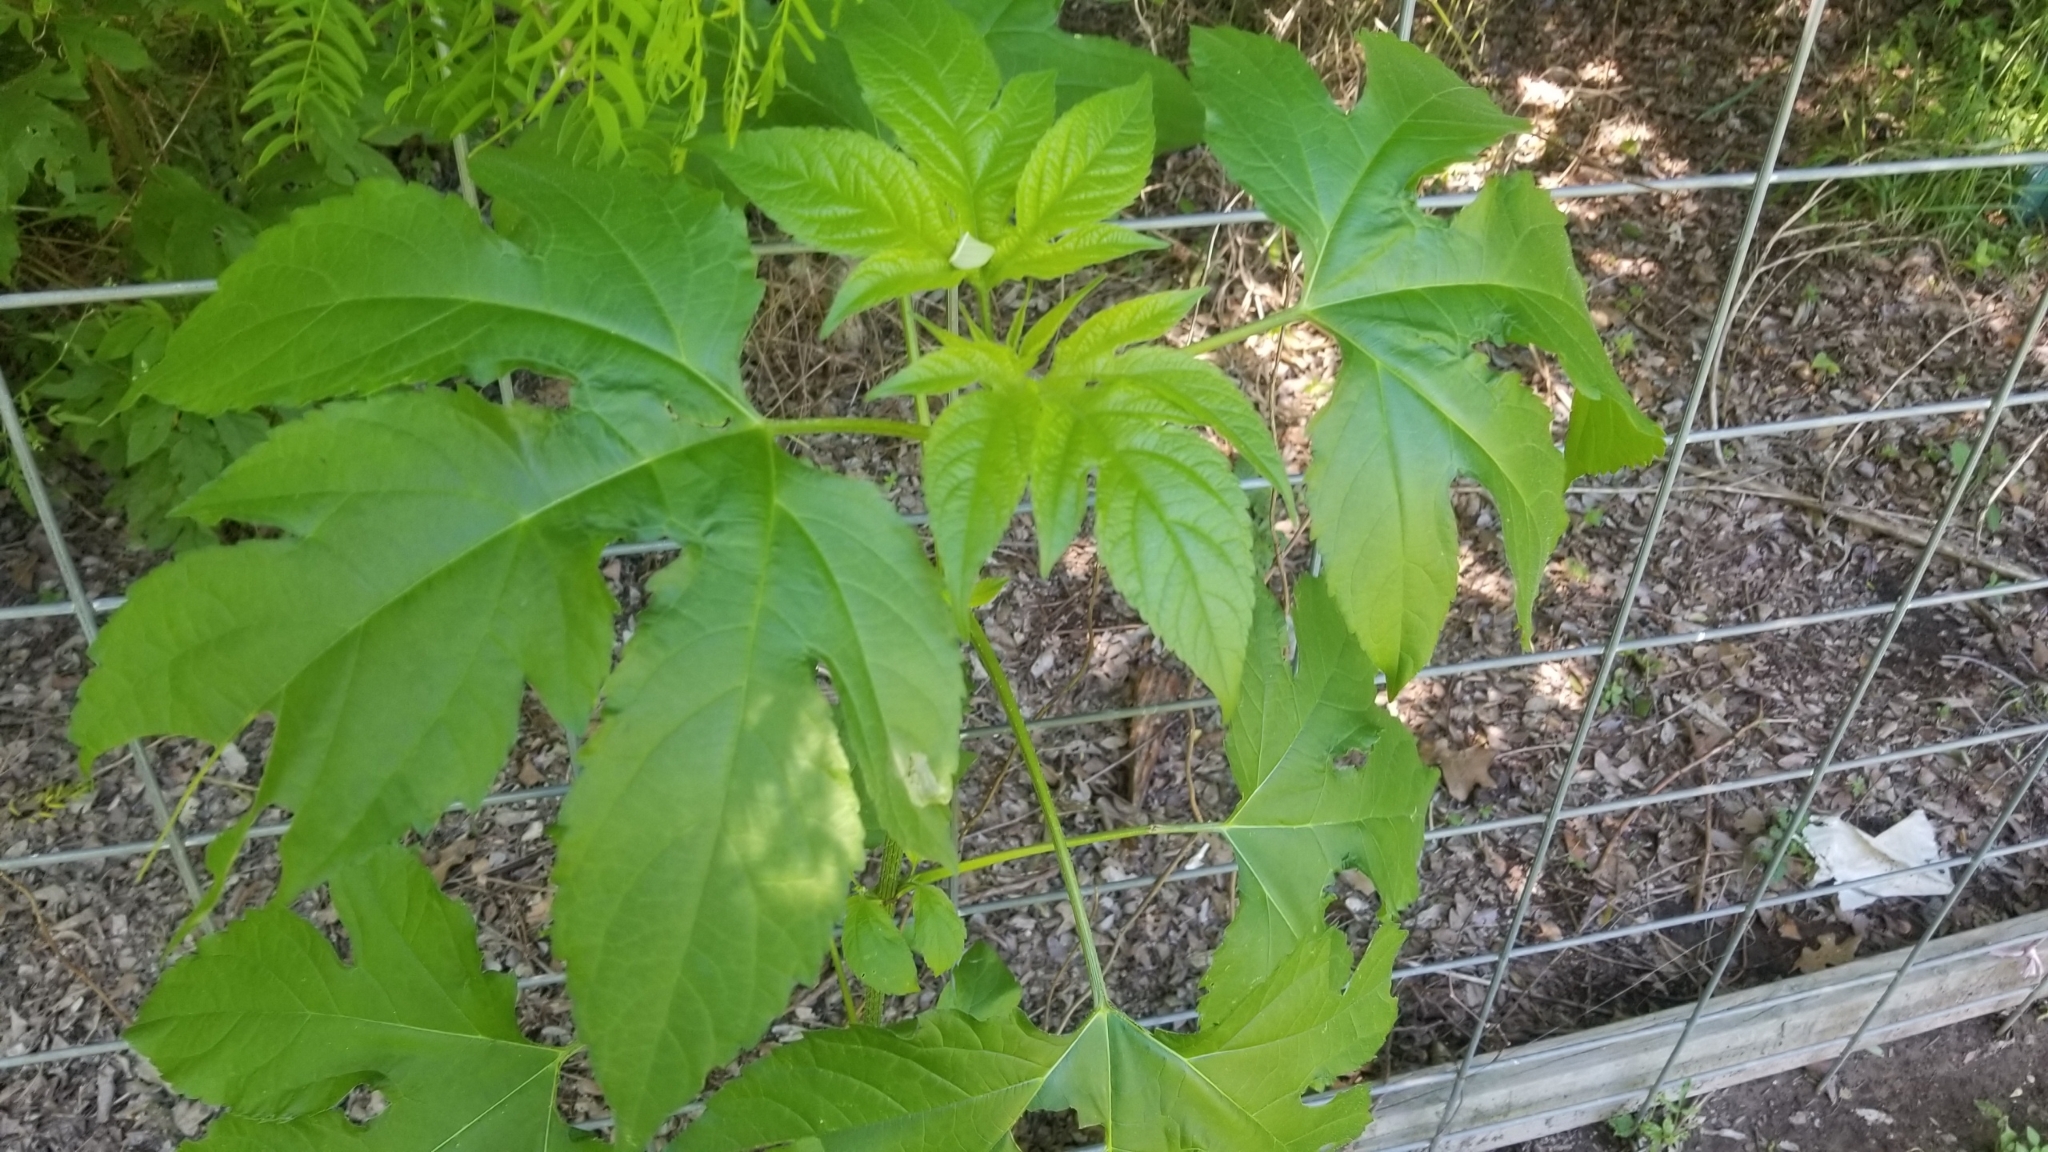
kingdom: Plantae
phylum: Tracheophyta
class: Magnoliopsida
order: Asterales
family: Asteraceae
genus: Ambrosia
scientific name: Ambrosia trifida
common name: Giant ragweed
